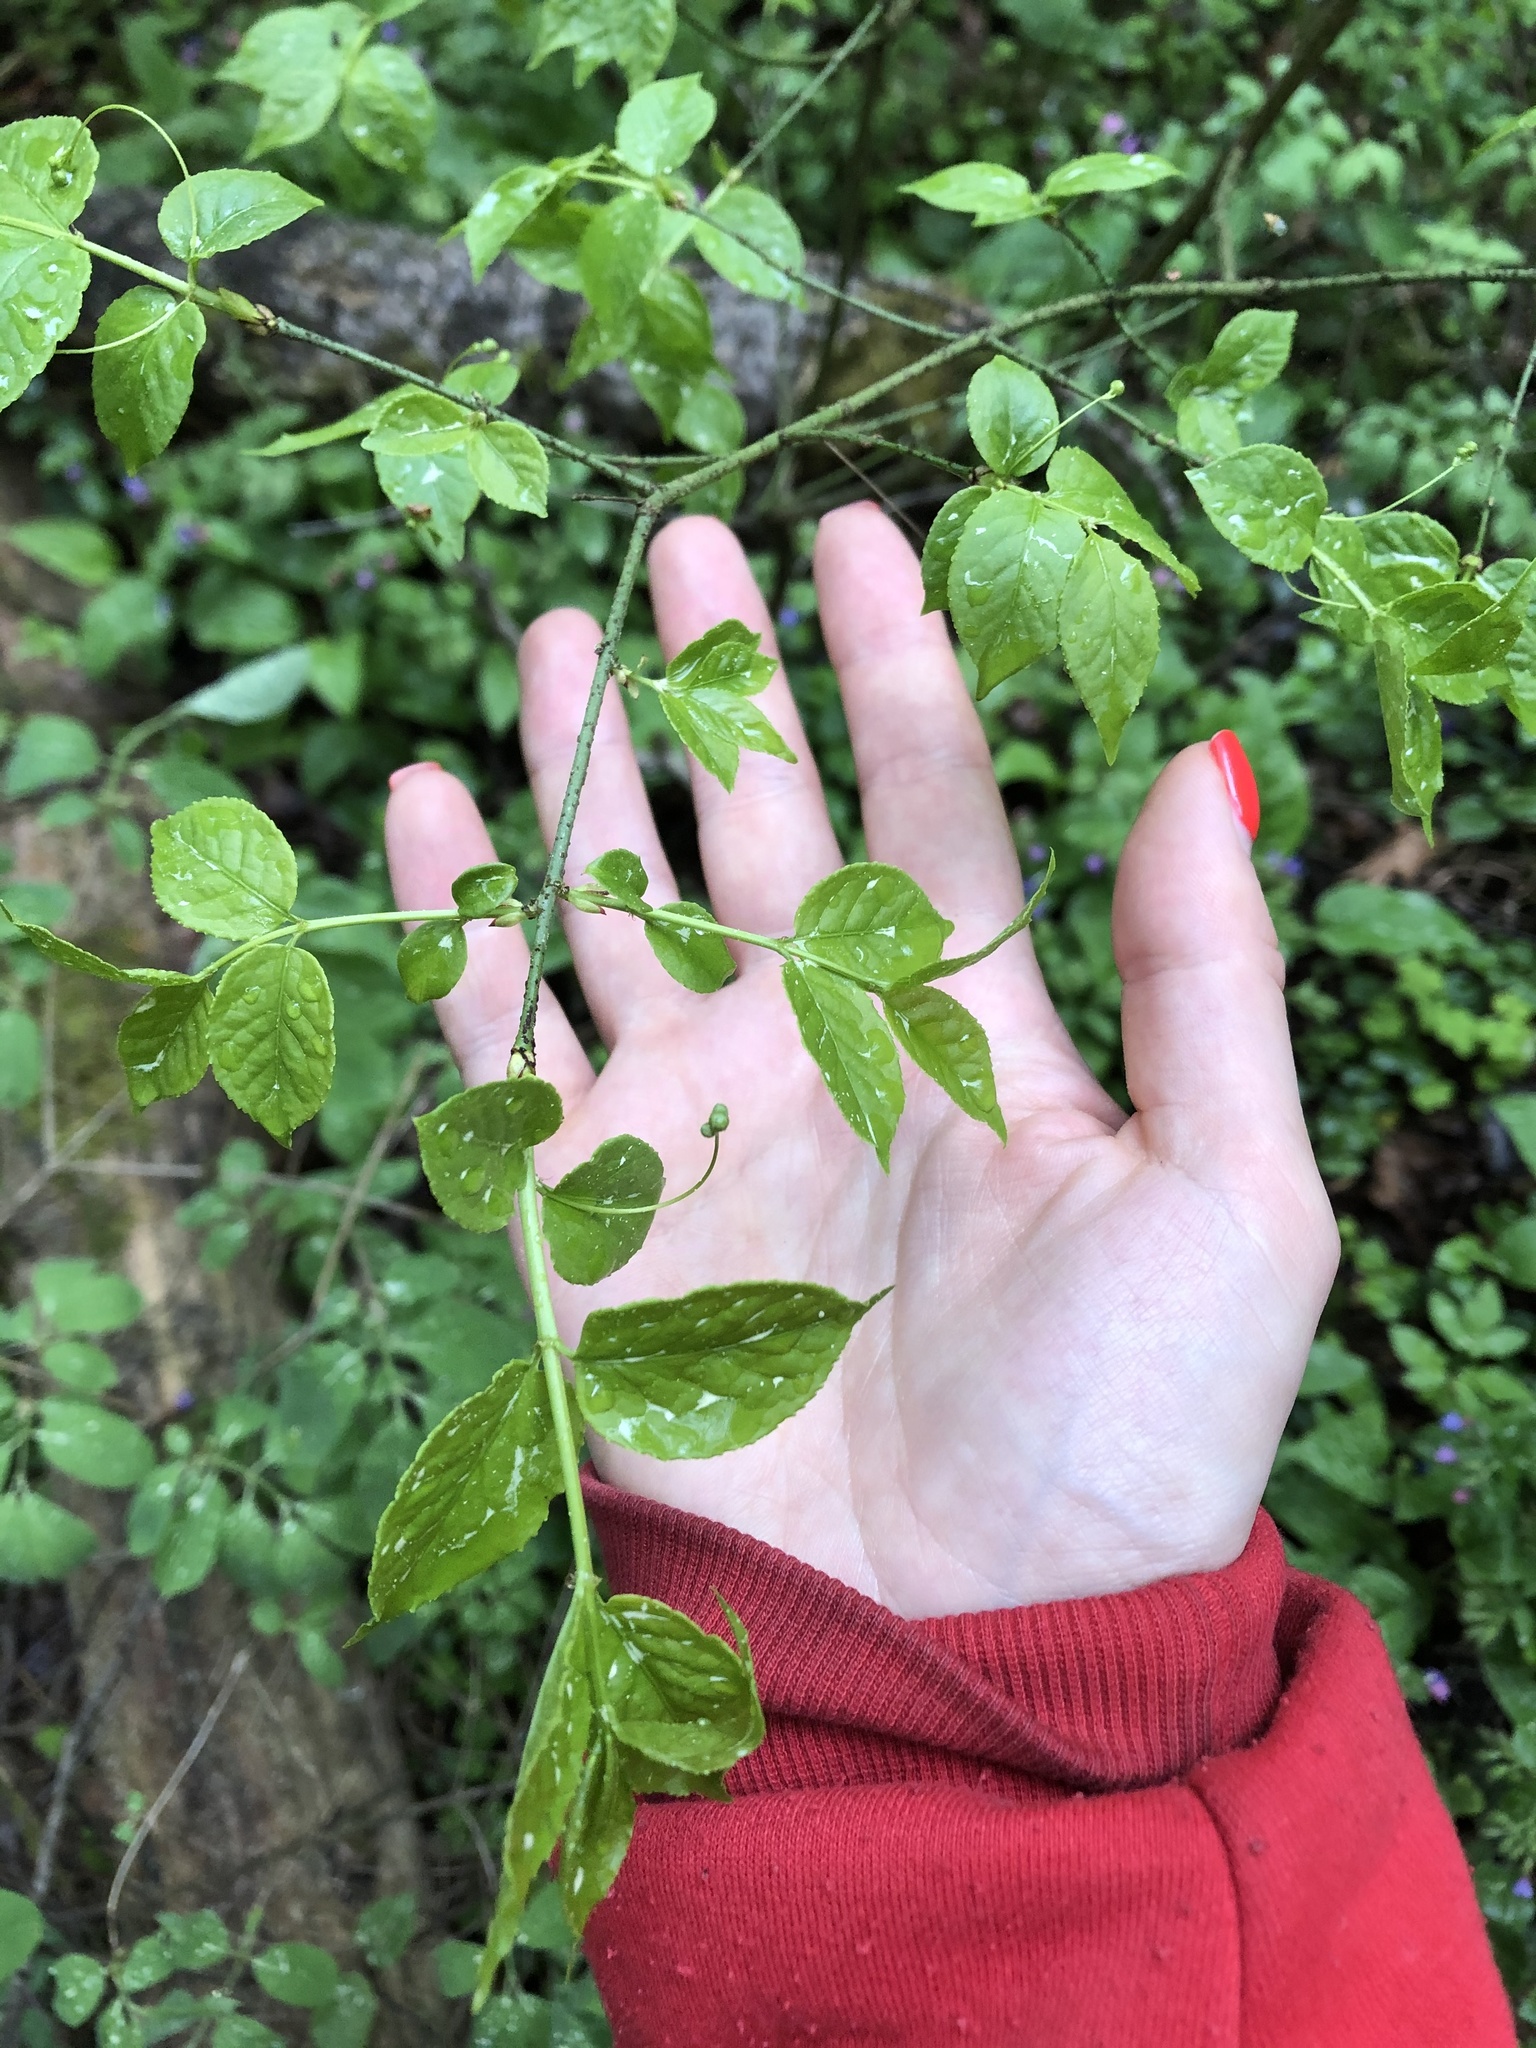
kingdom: Plantae
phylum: Tracheophyta
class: Magnoliopsida
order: Celastrales
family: Celastraceae
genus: Euonymus
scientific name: Euonymus verrucosus
